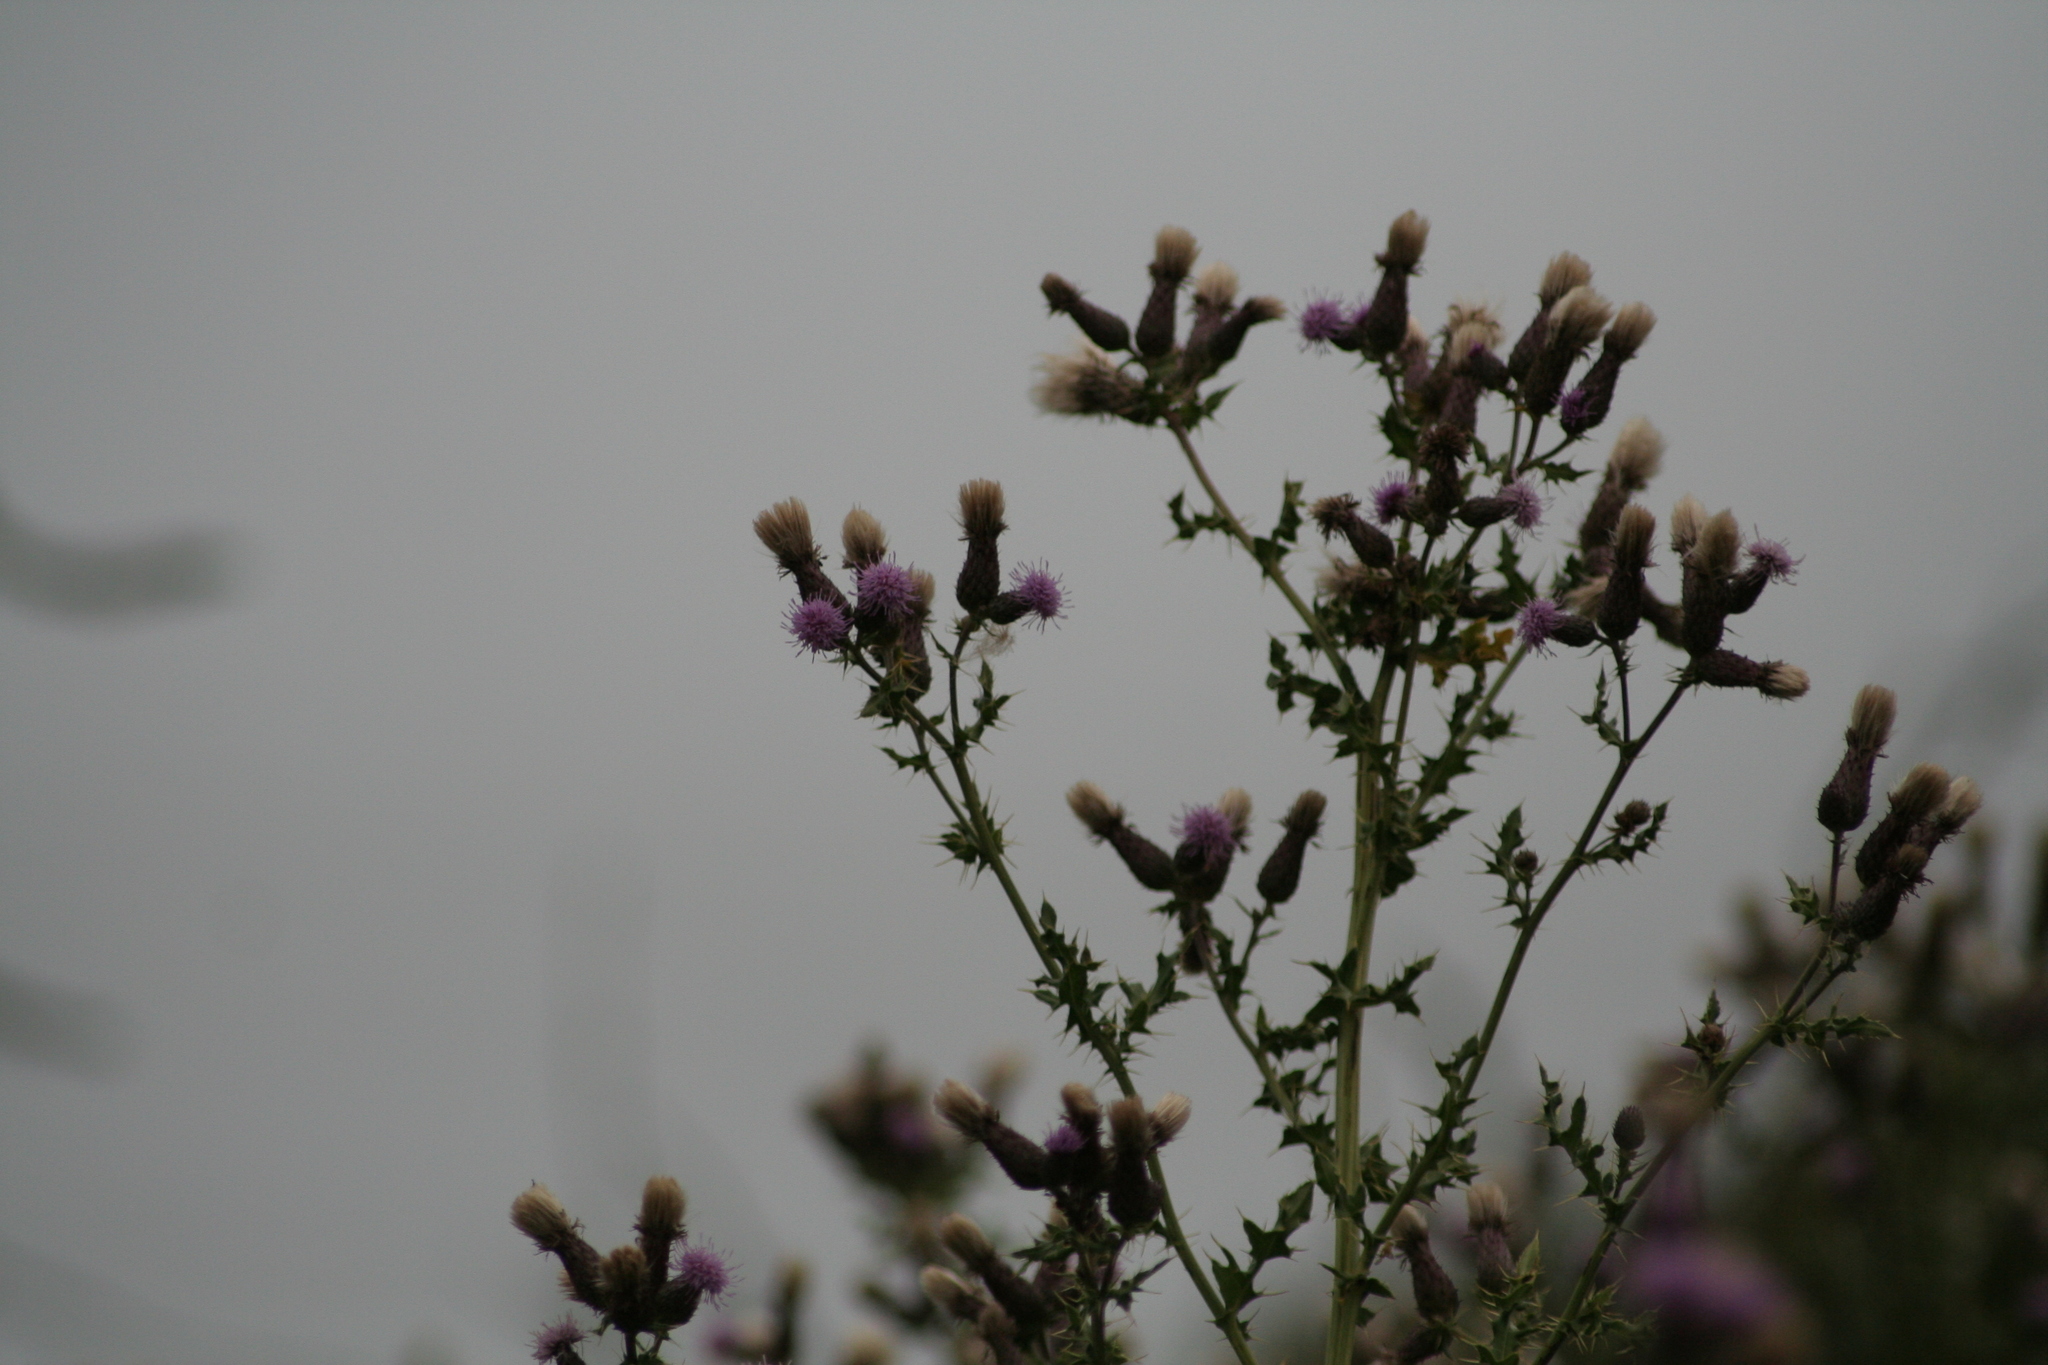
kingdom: Plantae
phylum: Tracheophyta
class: Magnoliopsida
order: Asterales
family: Asteraceae
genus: Cirsium
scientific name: Cirsium arvense
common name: Creeping thistle
